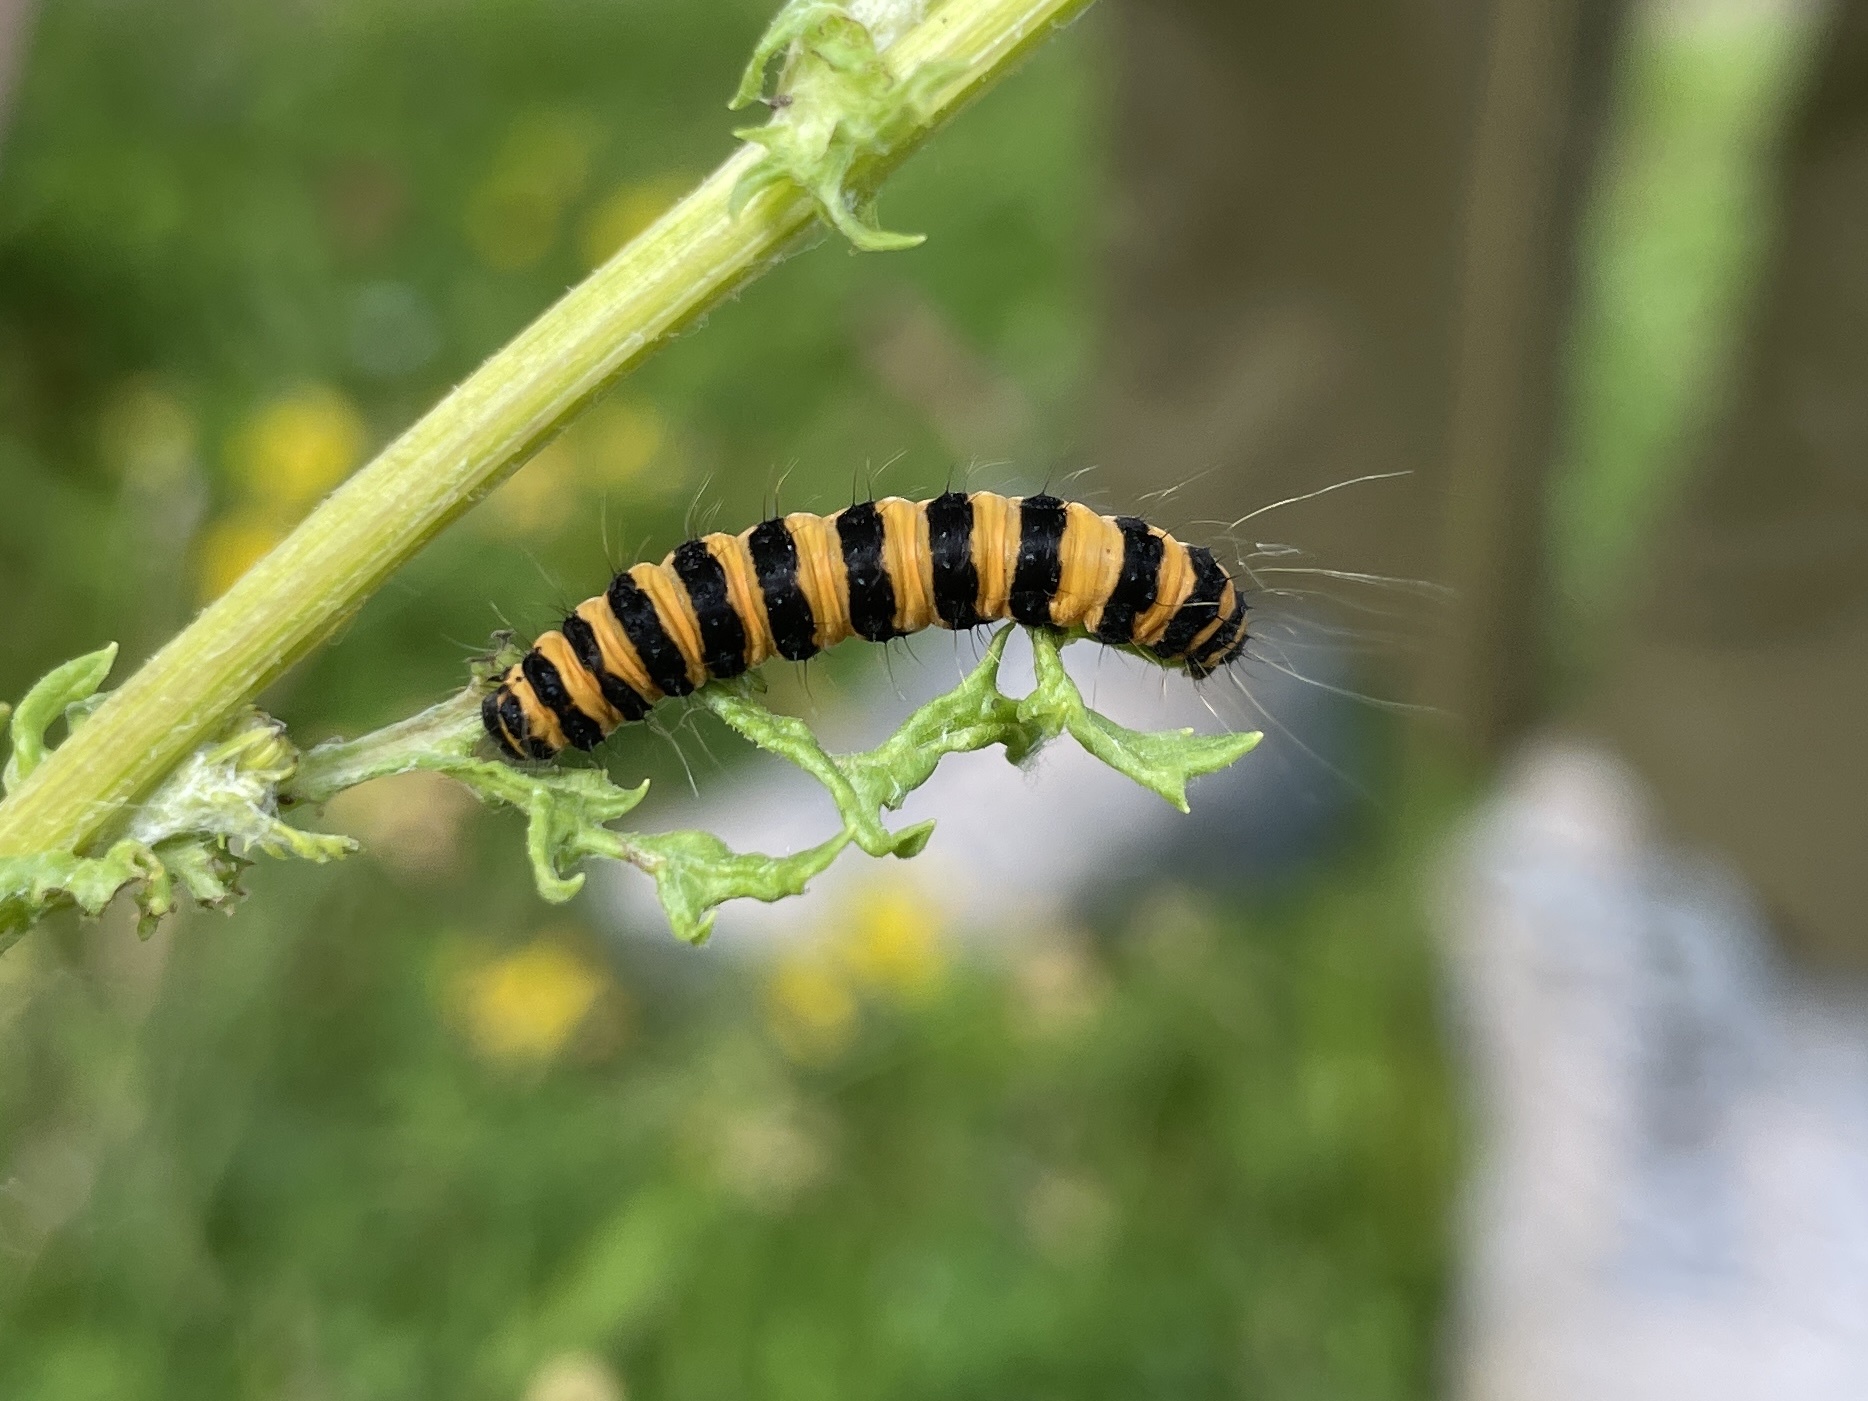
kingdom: Animalia
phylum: Arthropoda
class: Insecta
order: Lepidoptera
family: Erebidae
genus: Tyria
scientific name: Tyria jacobaeae
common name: Cinnabar
